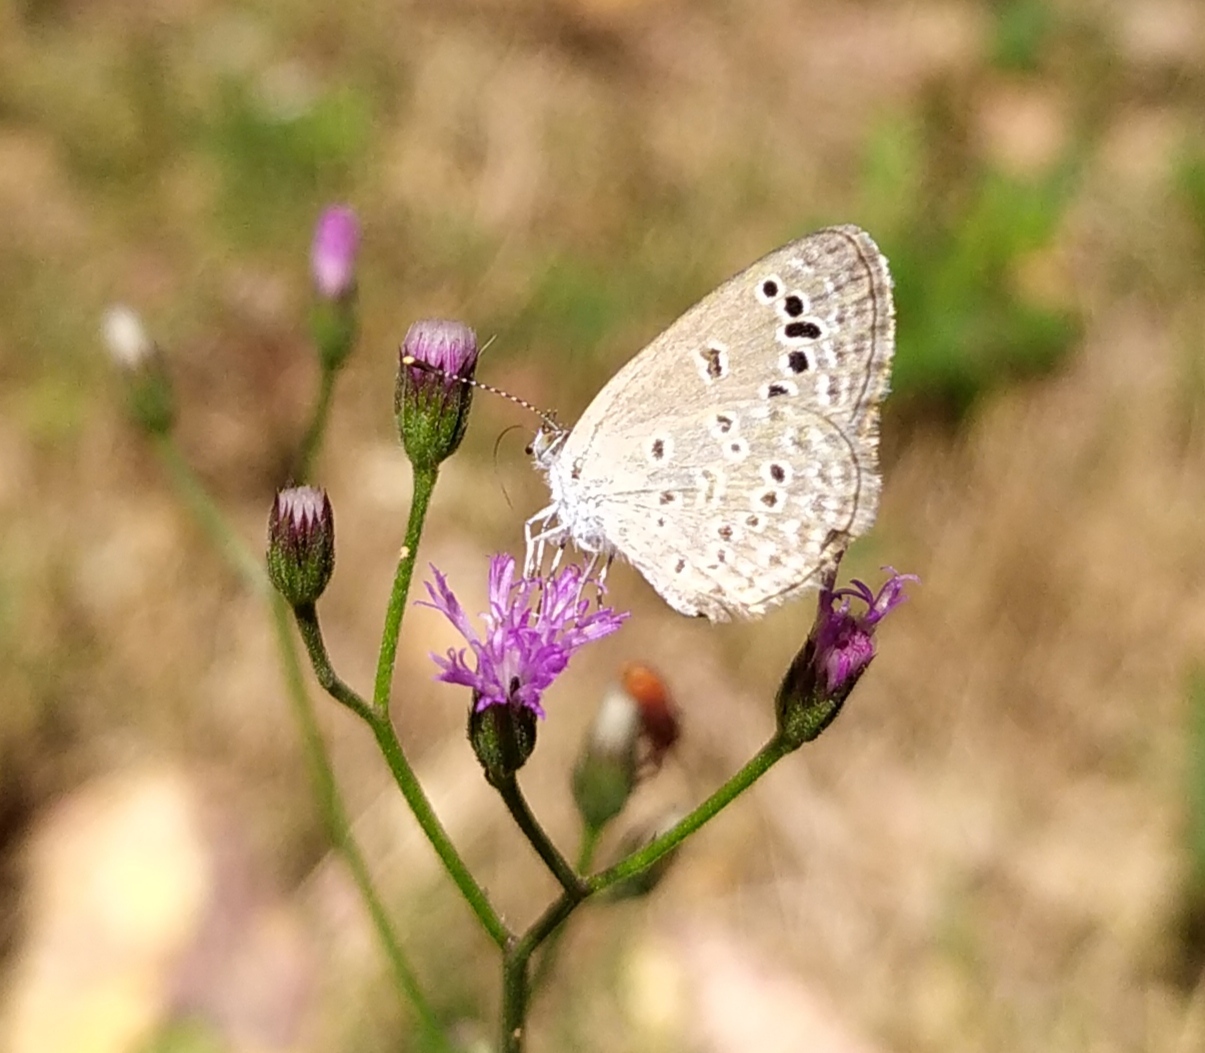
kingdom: Animalia
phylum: Arthropoda
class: Insecta
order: Lepidoptera
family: Lycaenidae
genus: Zizina
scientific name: Zizina otis
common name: Lesser grass blue
